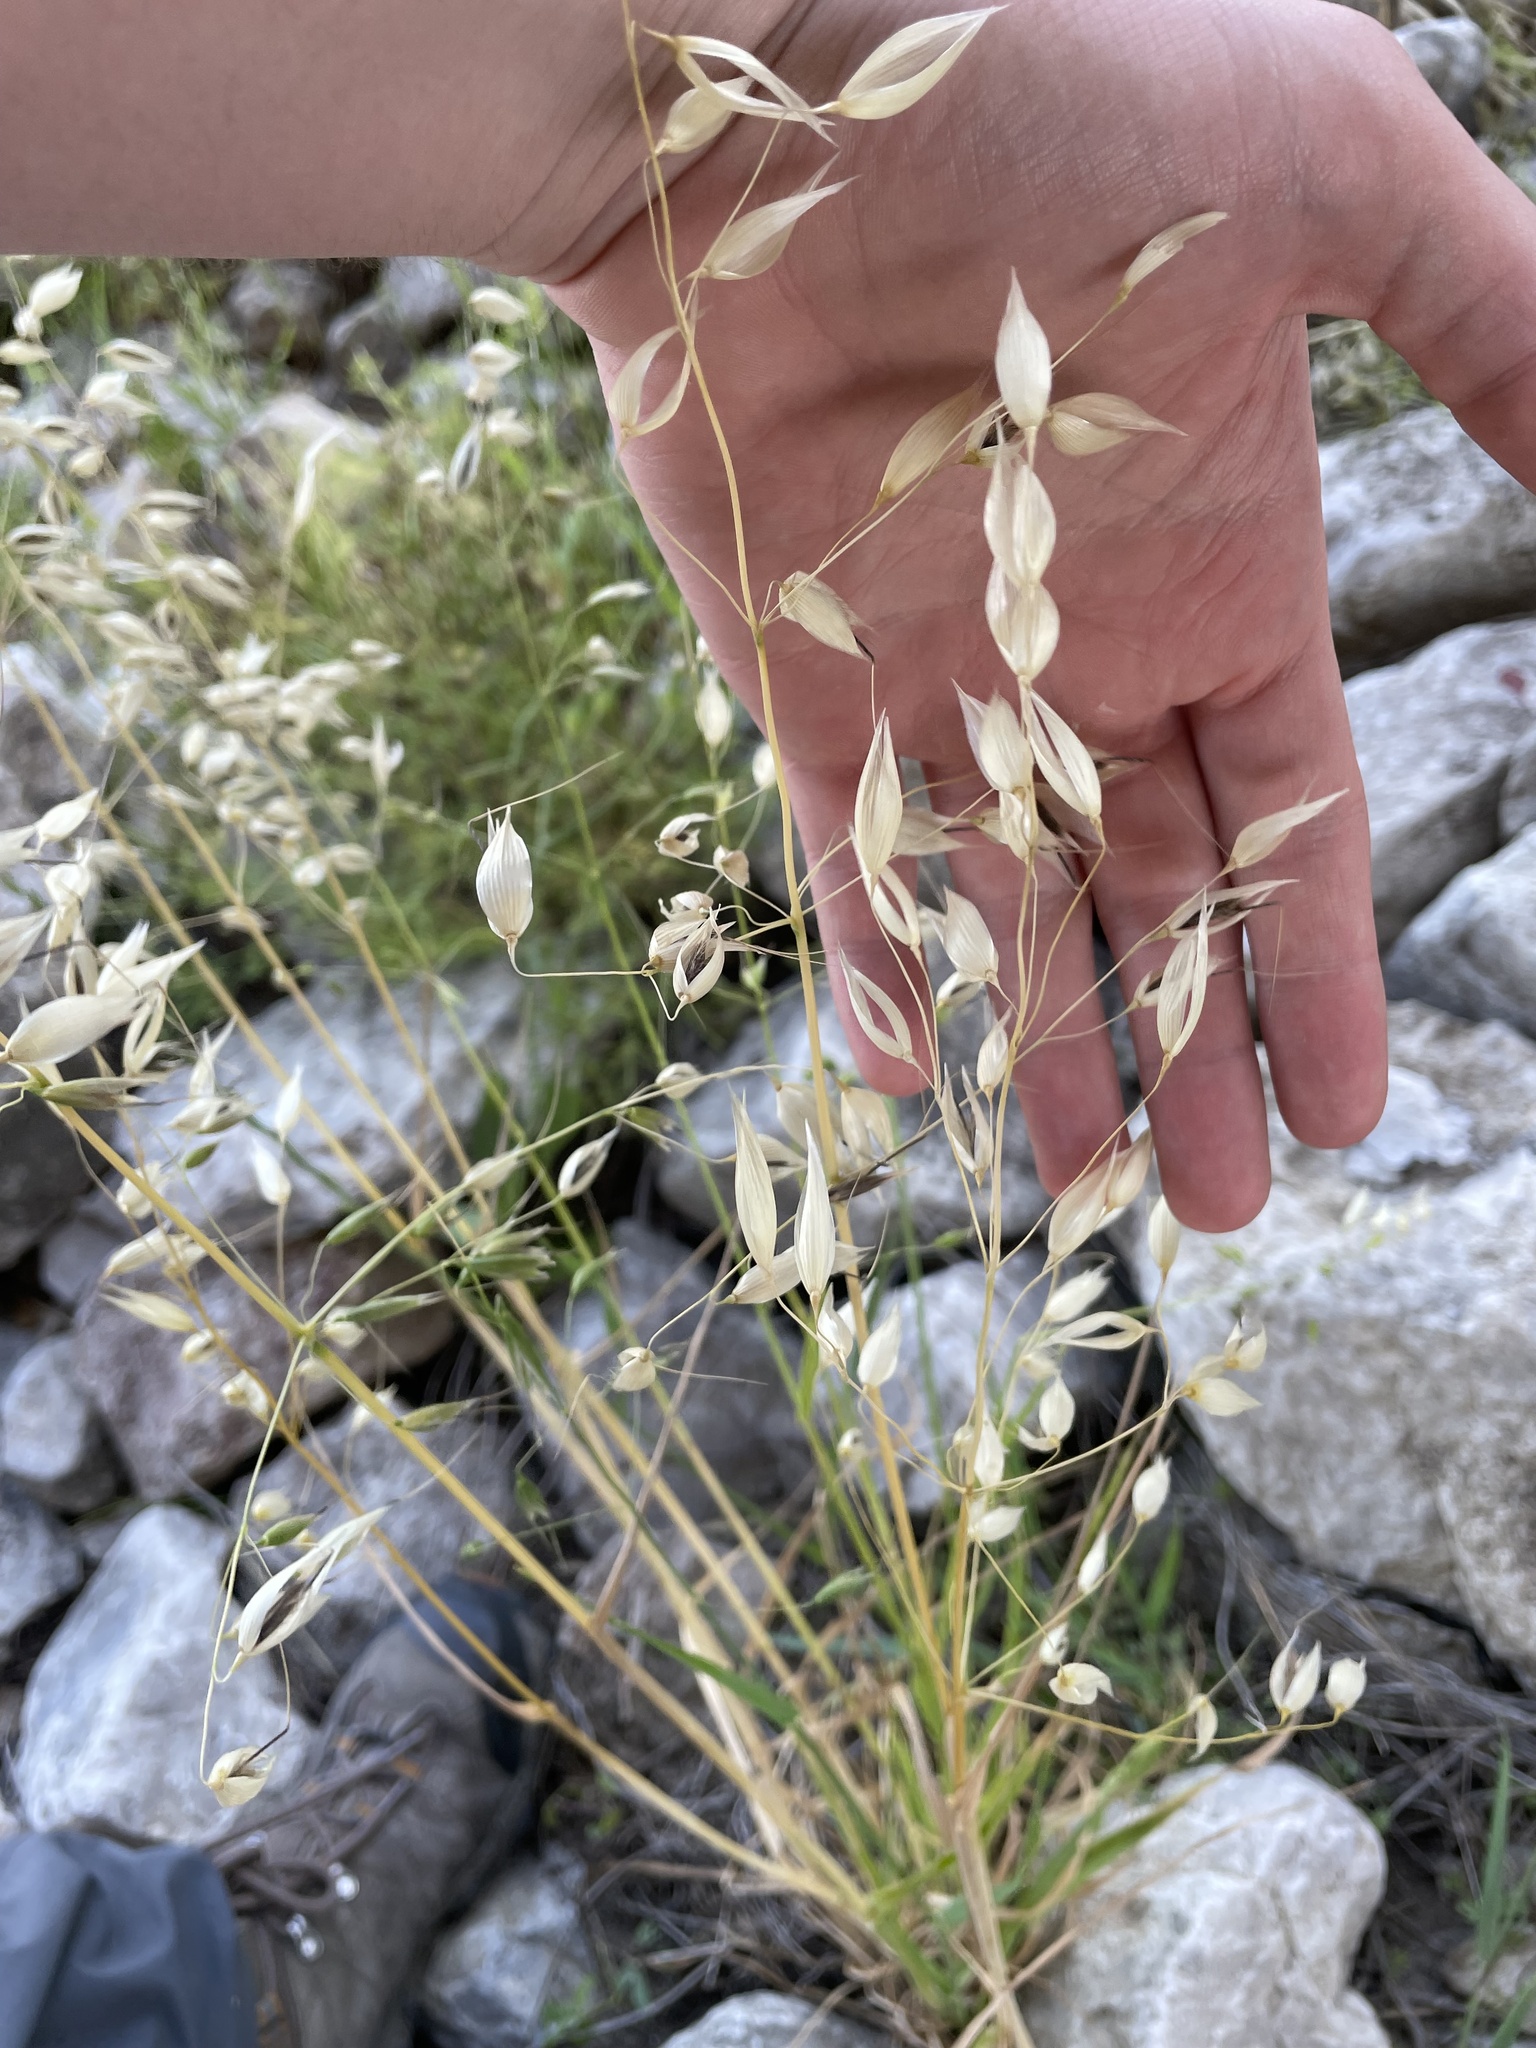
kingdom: Plantae
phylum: Tracheophyta
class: Liliopsida
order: Poales
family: Poaceae
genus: Avena
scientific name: Avena fatua
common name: Wild oat
